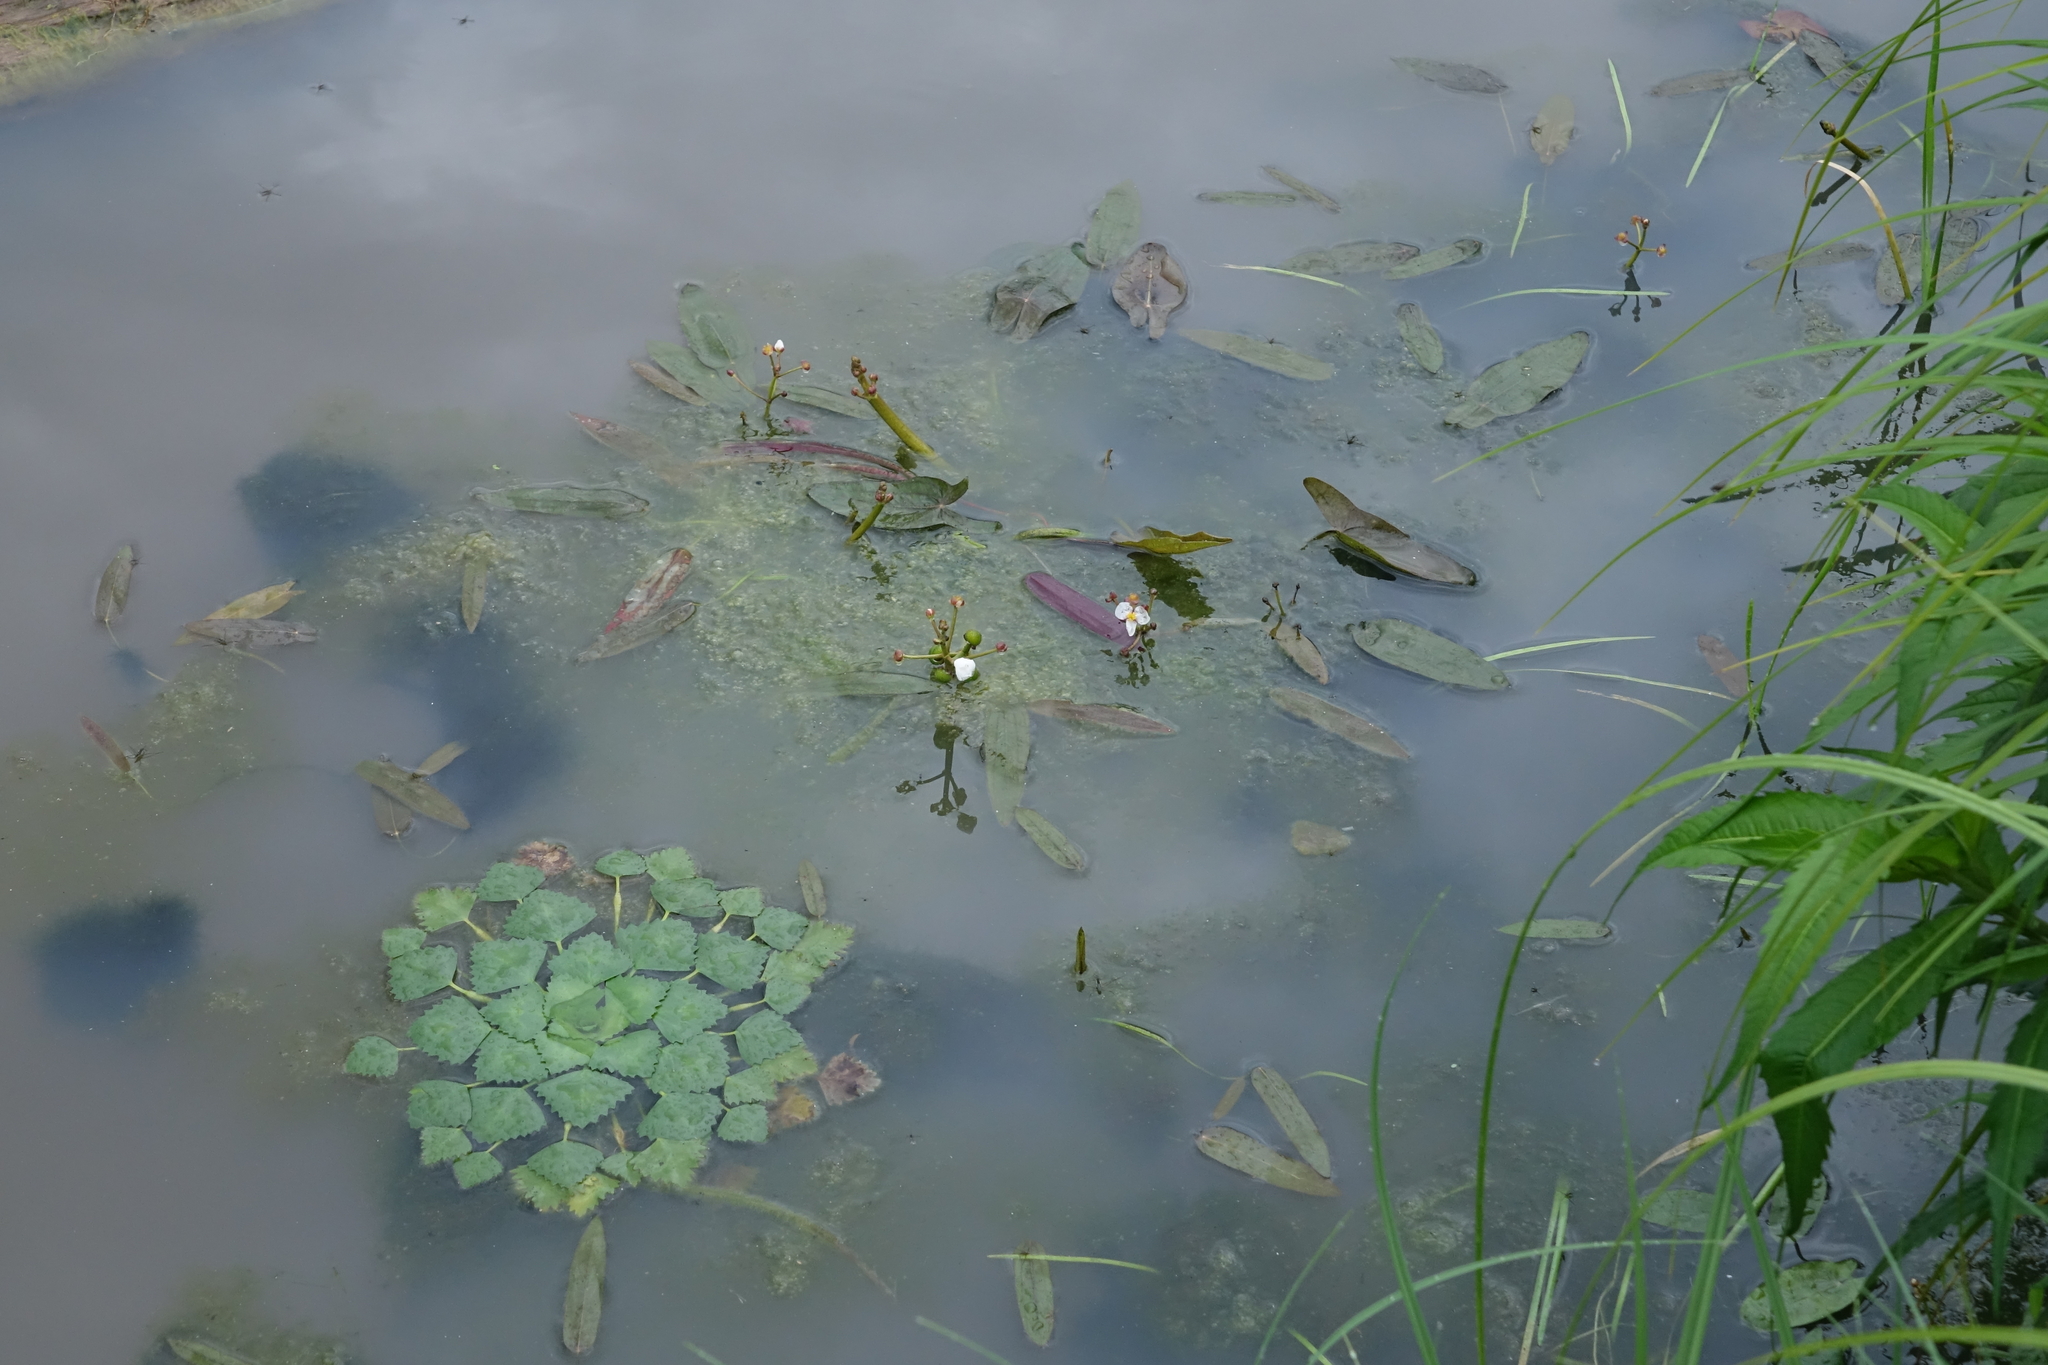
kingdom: Plantae
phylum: Tracheophyta
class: Magnoliopsida
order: Myrtales
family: Lythraceae
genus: Trapa
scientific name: Trapa natans
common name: Water chestnut
